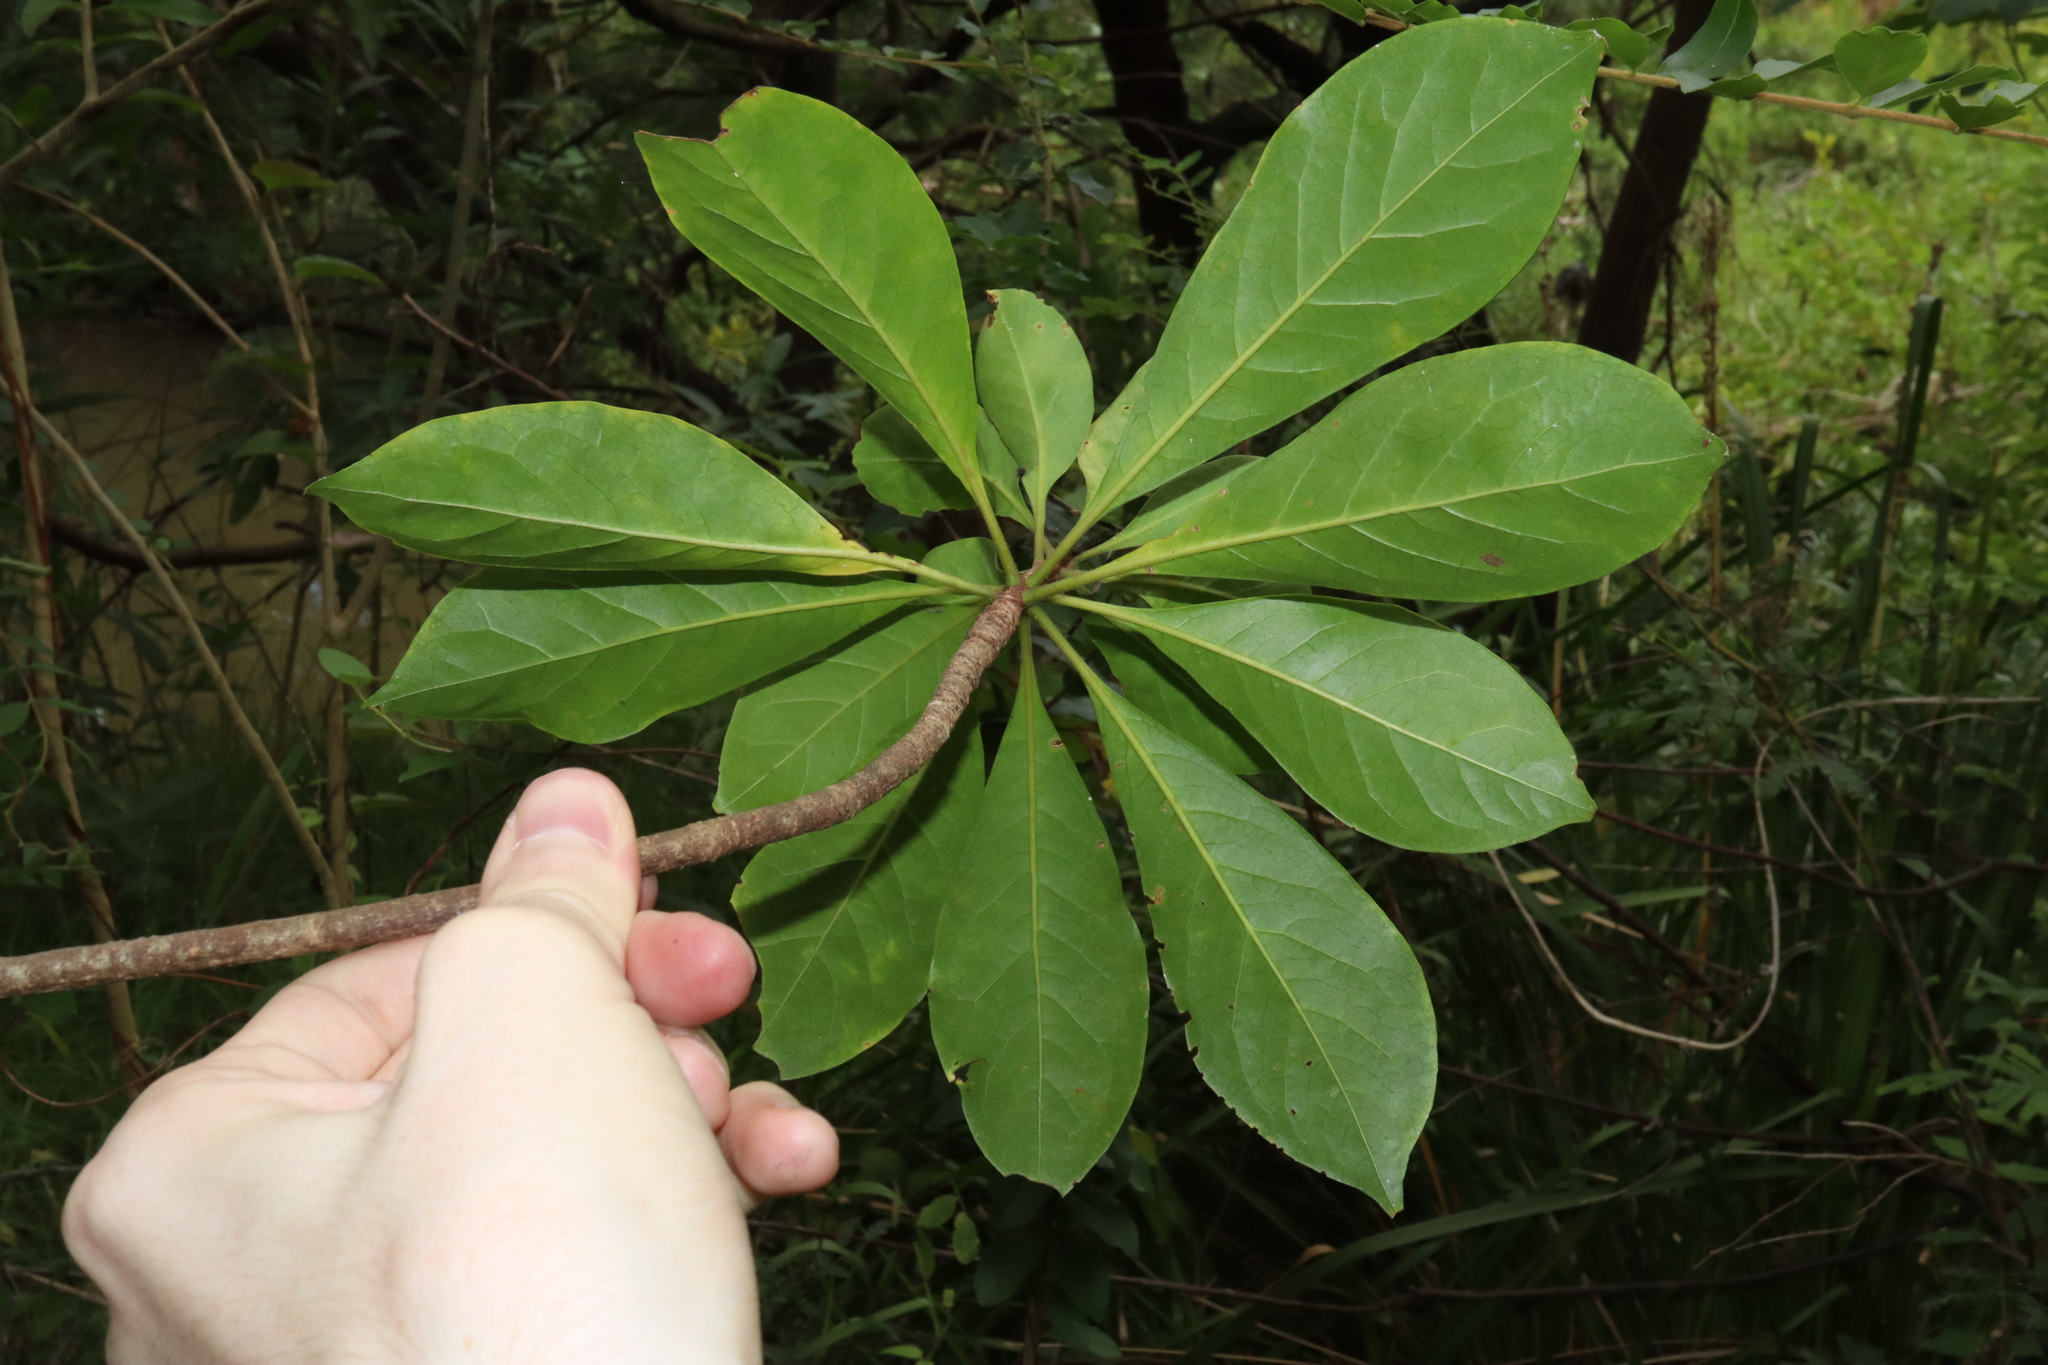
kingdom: Plantae
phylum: Tracheophyta
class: Magnoliopsida
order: Apiales
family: Pittosporaceae
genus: Hymenosporum
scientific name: Hymenosporum flavum
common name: Native frangipani
